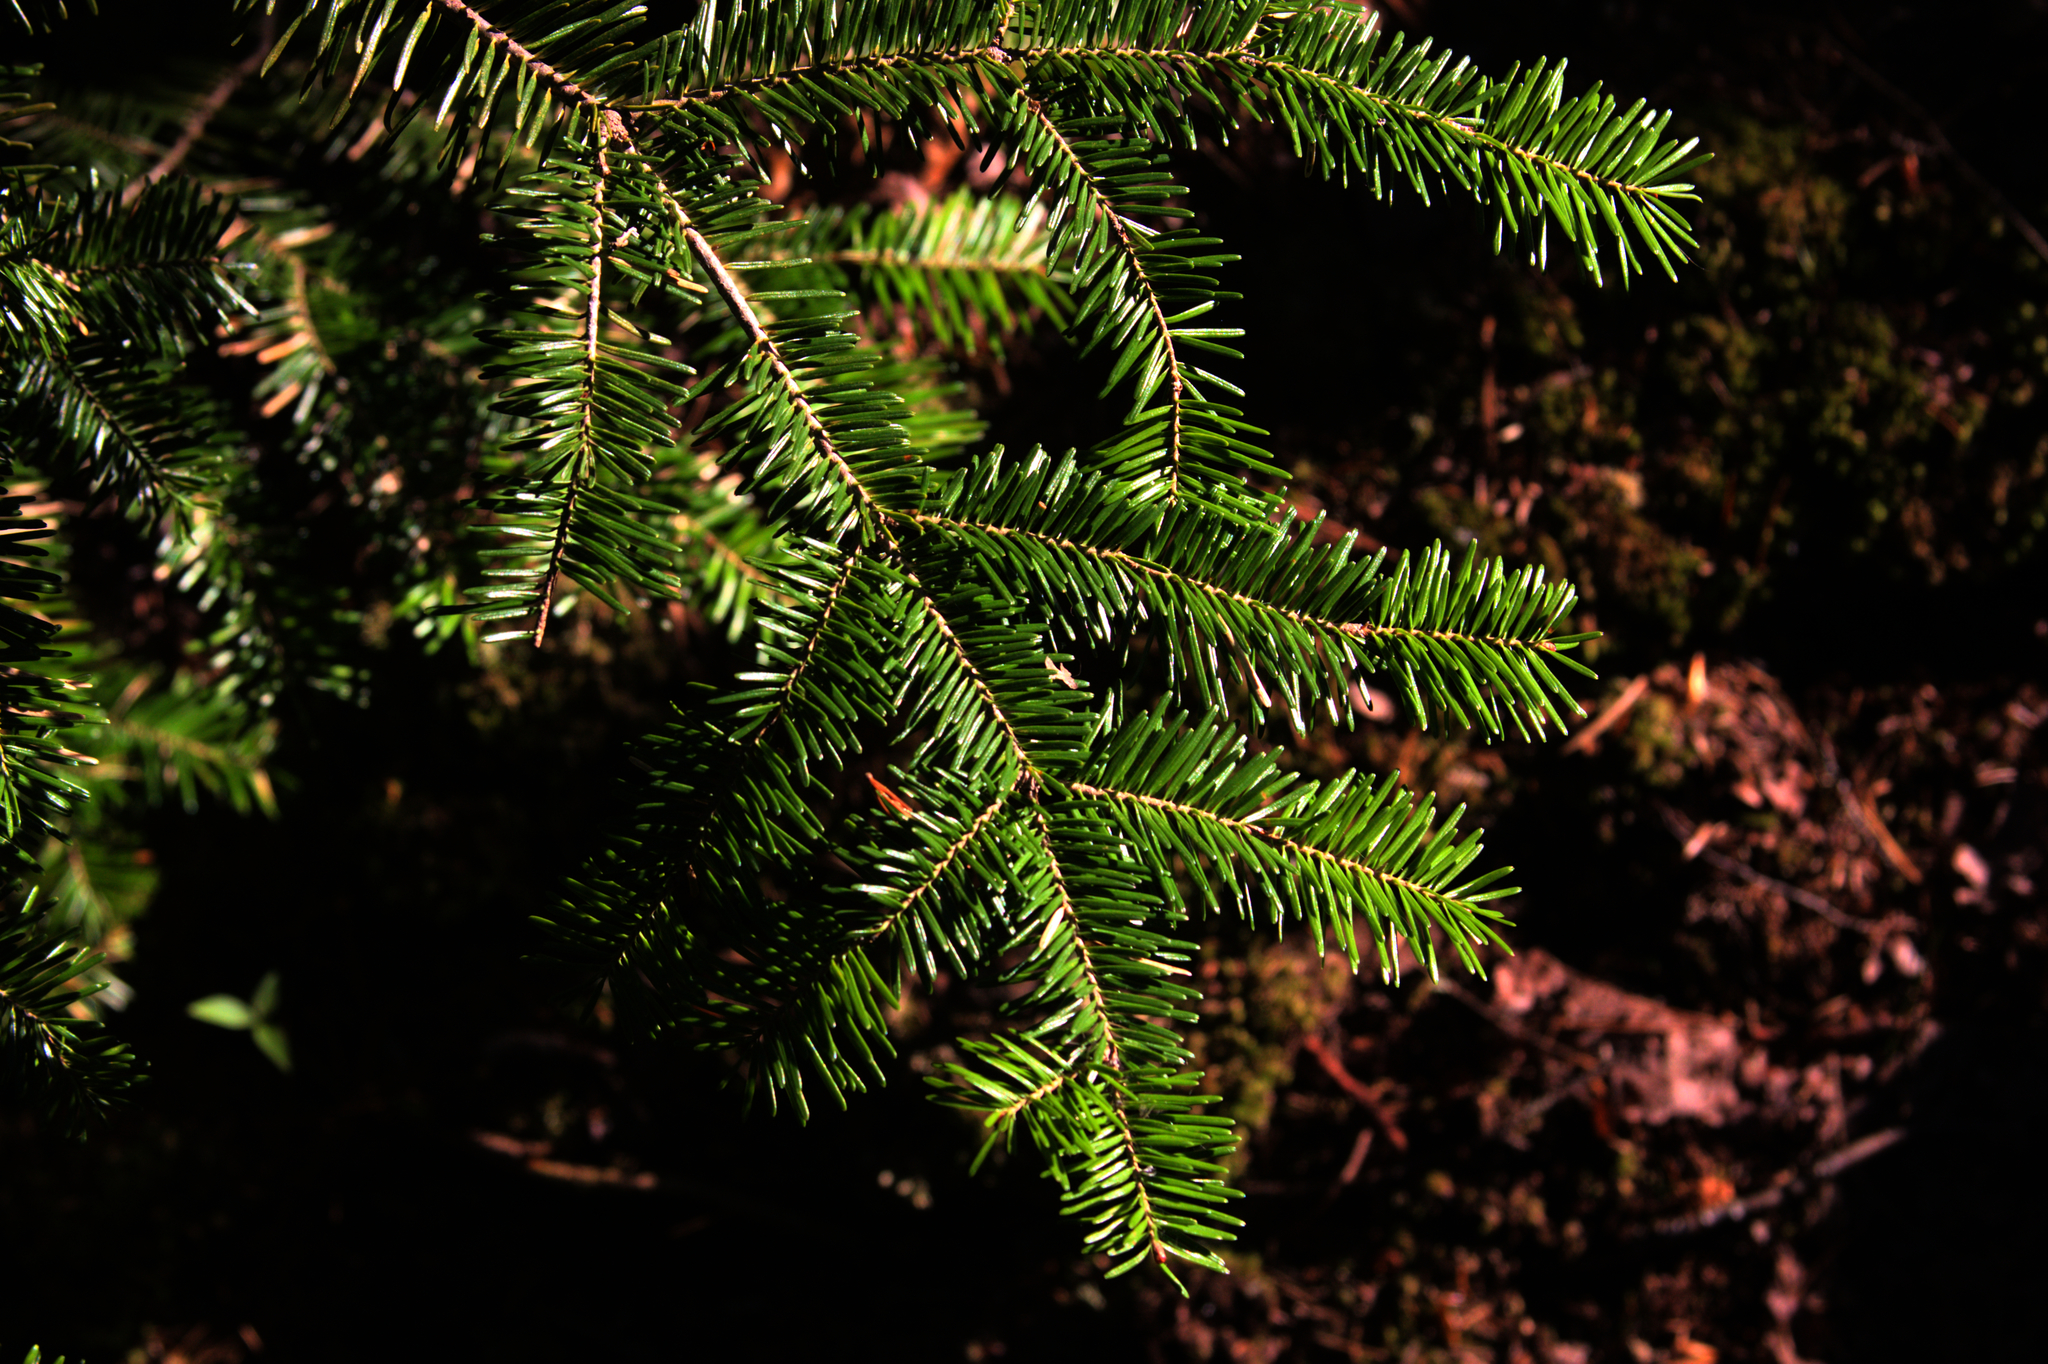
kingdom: Plantae
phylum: Tracheophyta
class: Pinopsida
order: Pinales
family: Pinaceae
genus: Abies
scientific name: Abies balsamea
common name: Balsam fir
